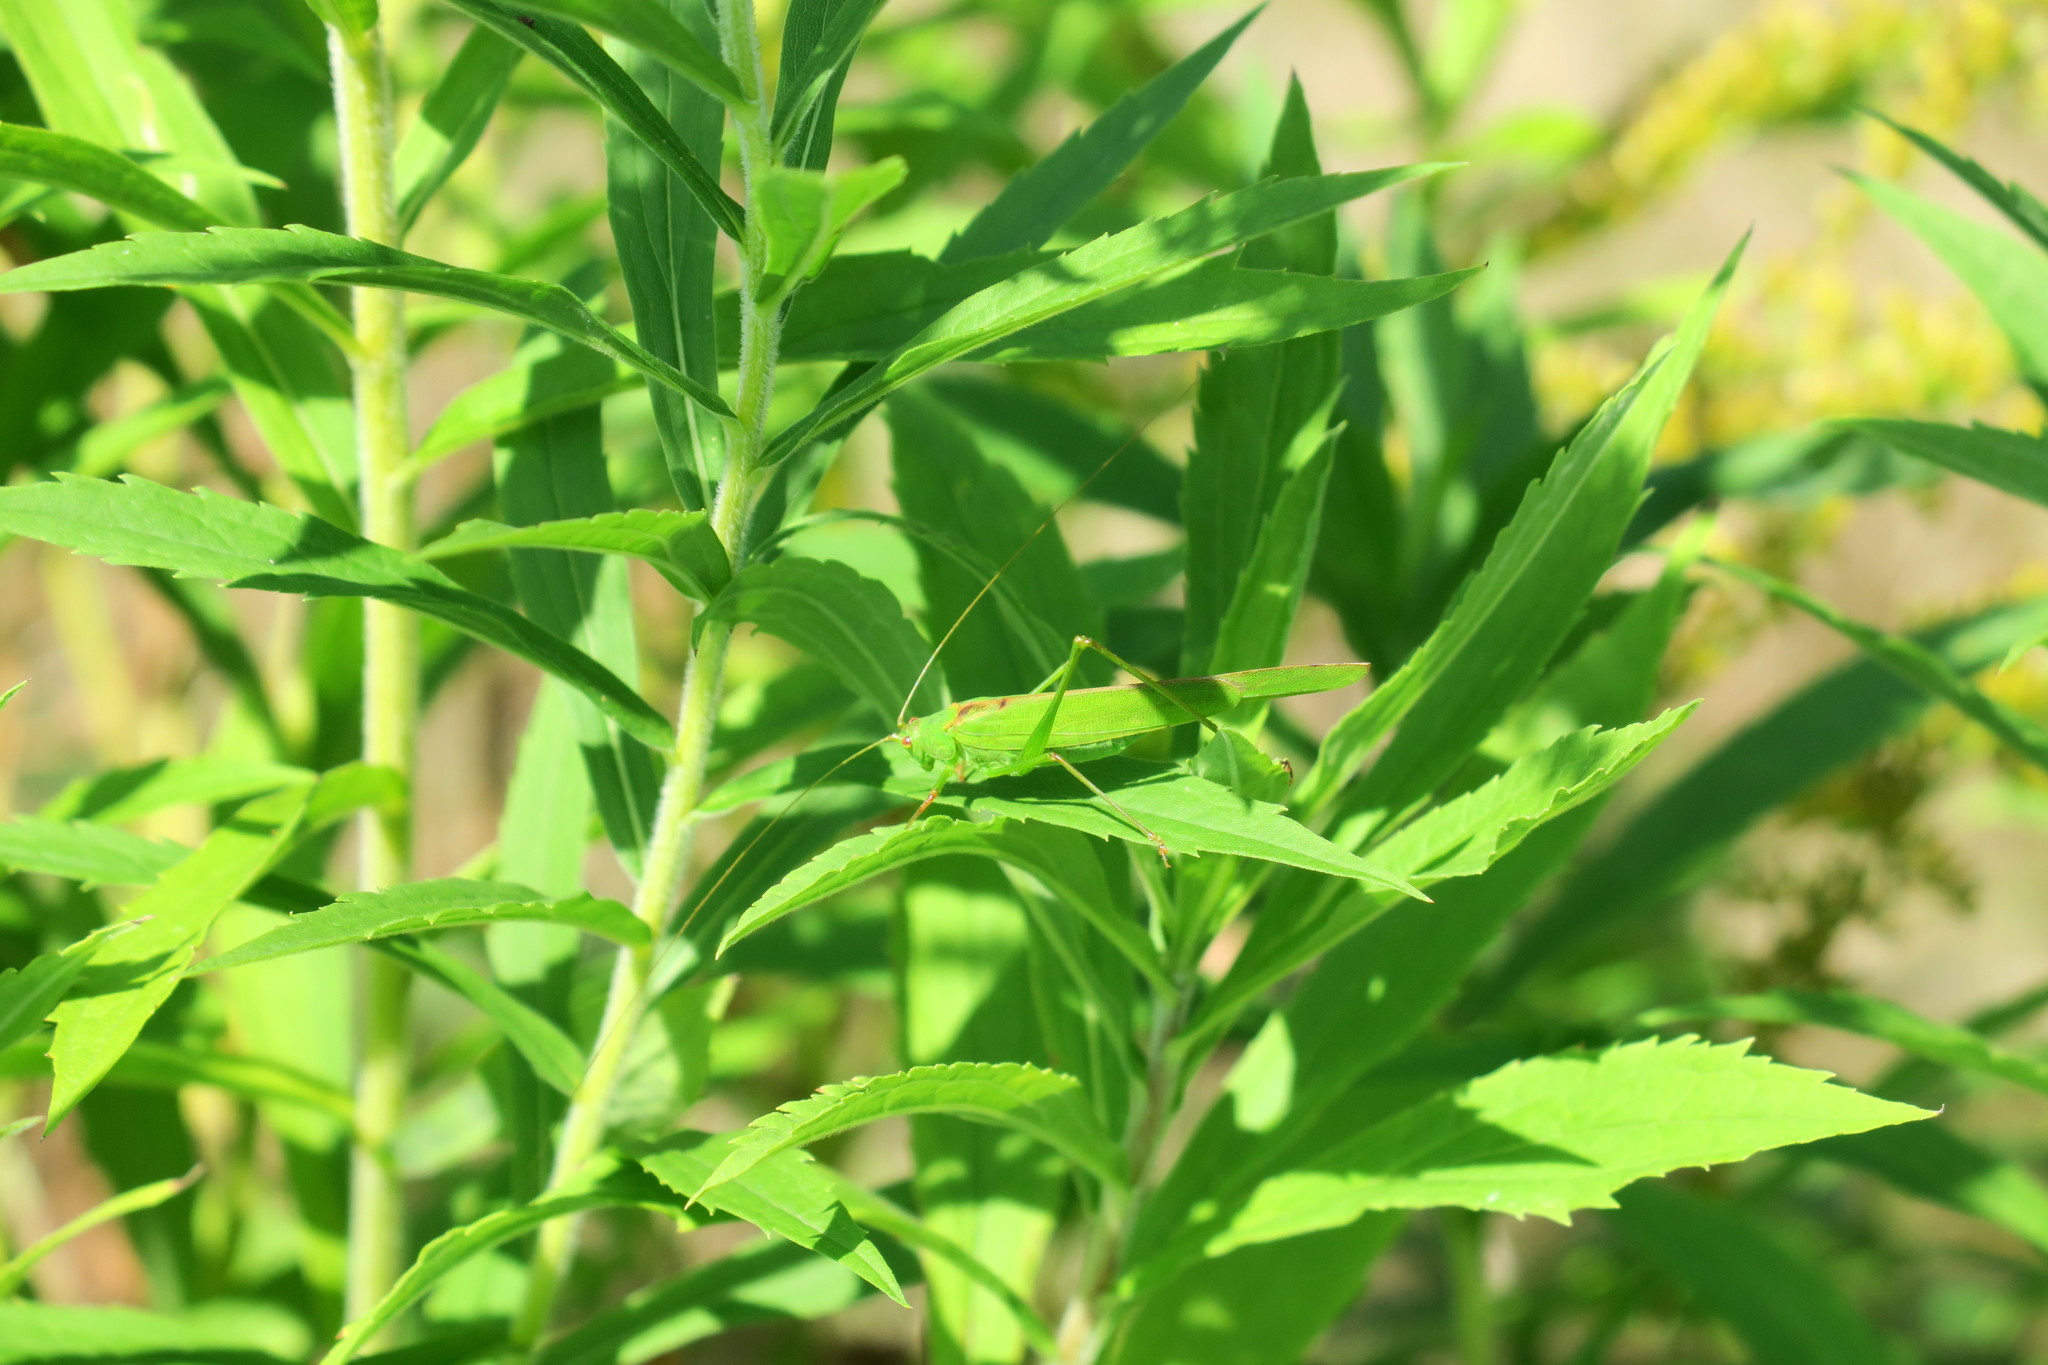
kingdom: Animalia
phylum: Arthropoda
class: Insecta
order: Orthoptera
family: Tettigoniidae
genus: Phaneroptera
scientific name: Phaneroptera falcata
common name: Sickle-bearing bush-cricket
